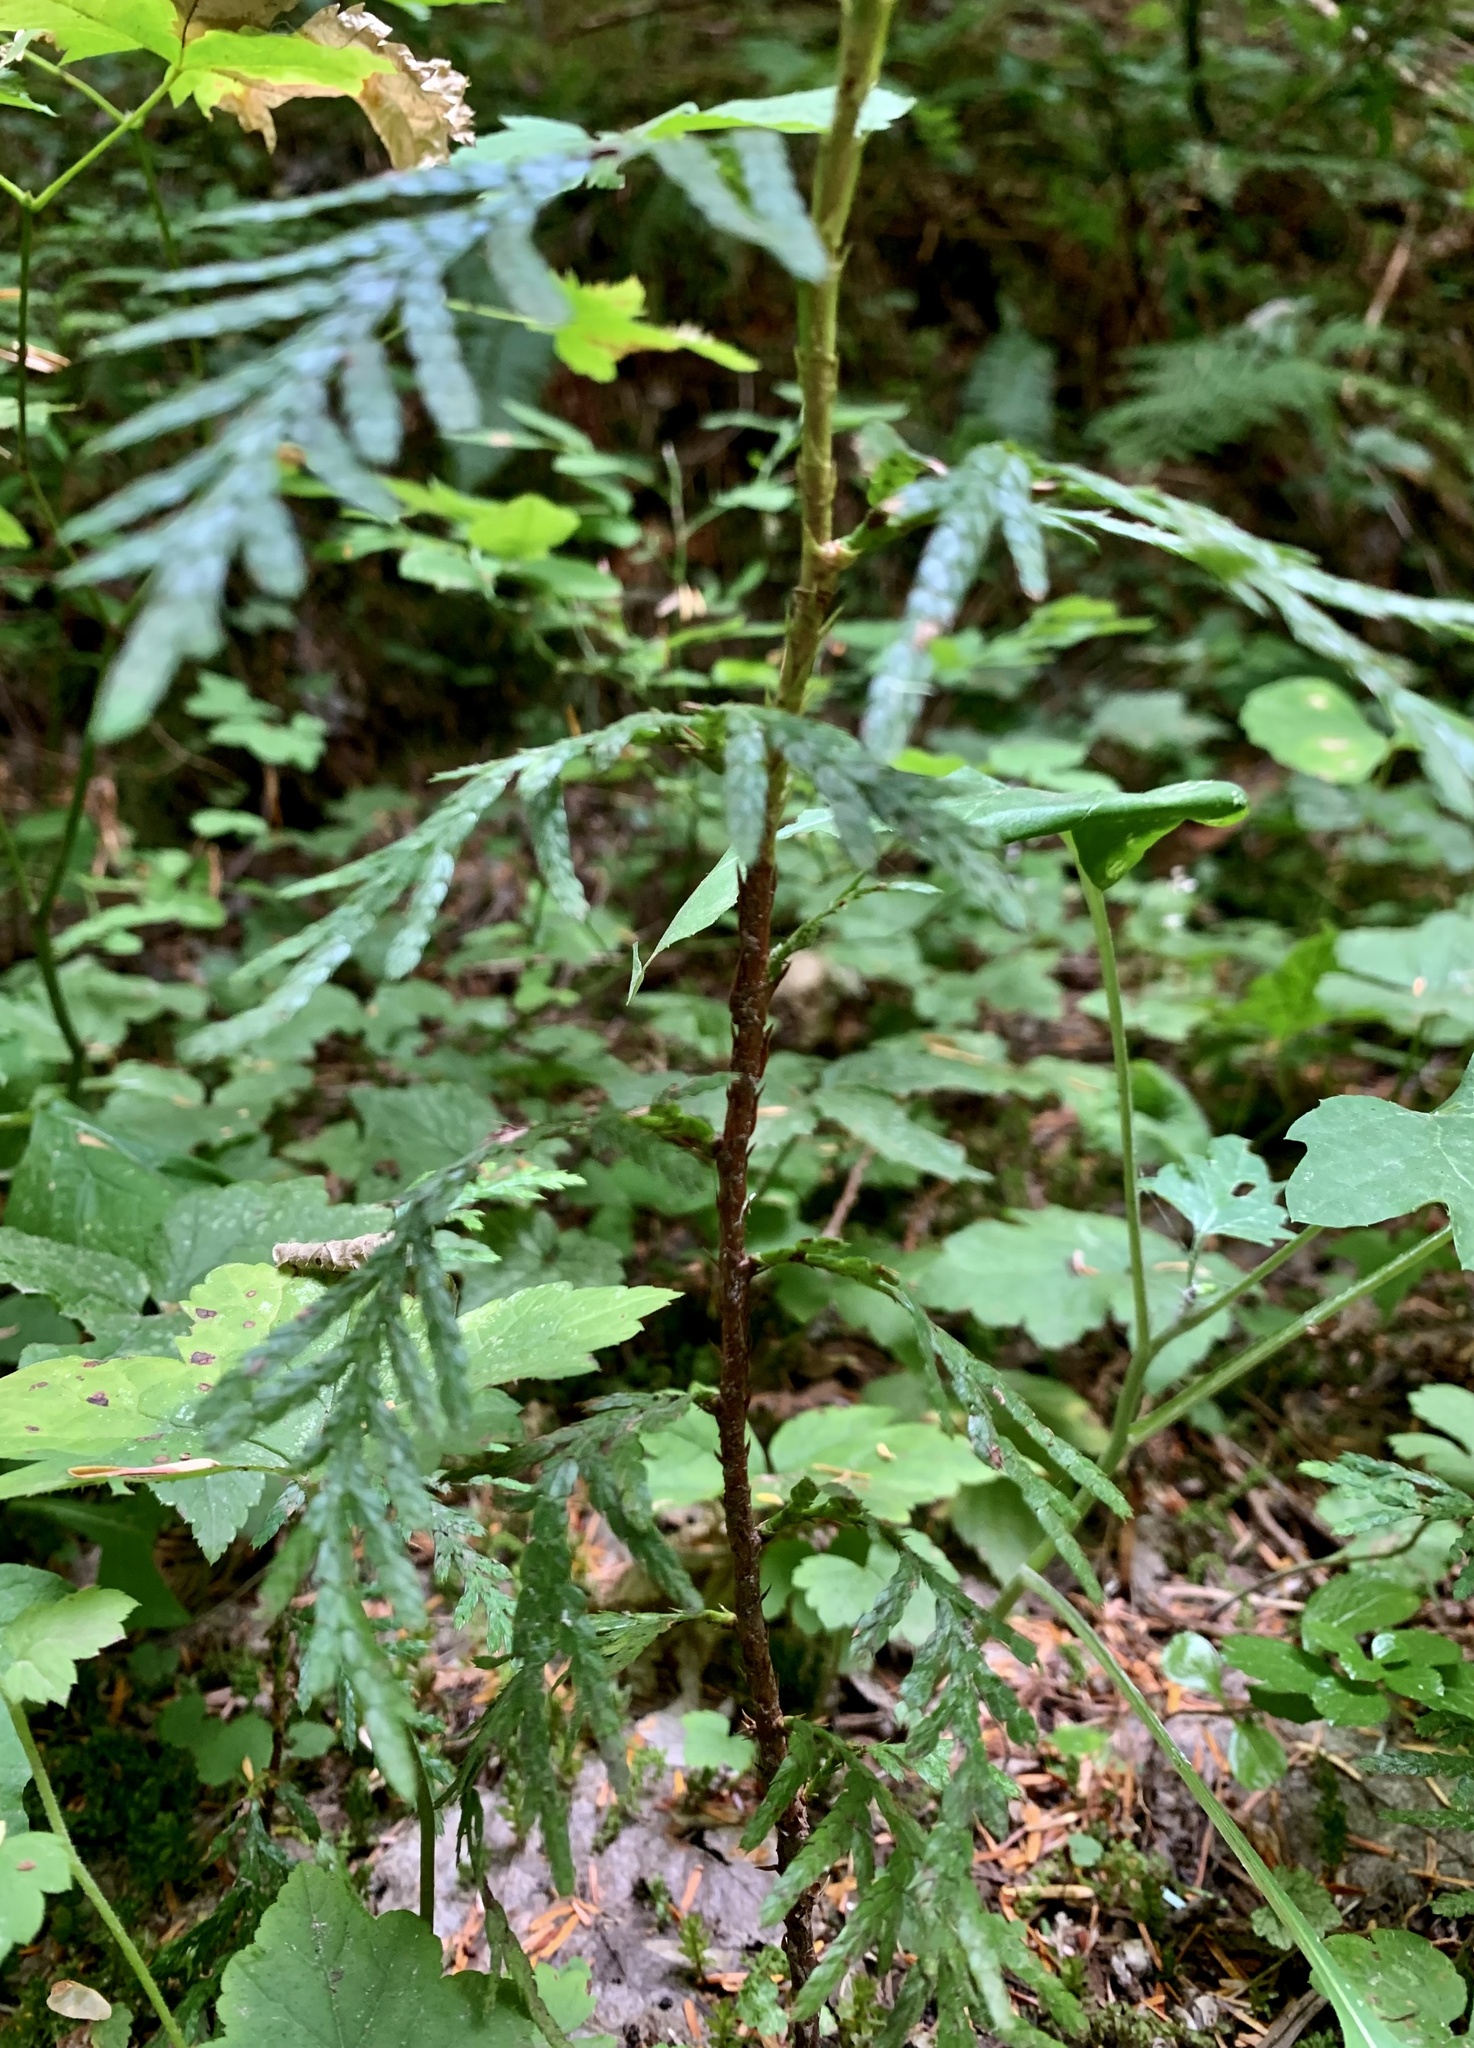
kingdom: Plantae
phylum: Tracheophyta
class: Pinopsida
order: Pinales
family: Cupressaceae
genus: Thuja
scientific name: Thuja plicata
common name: Western red-cedar
